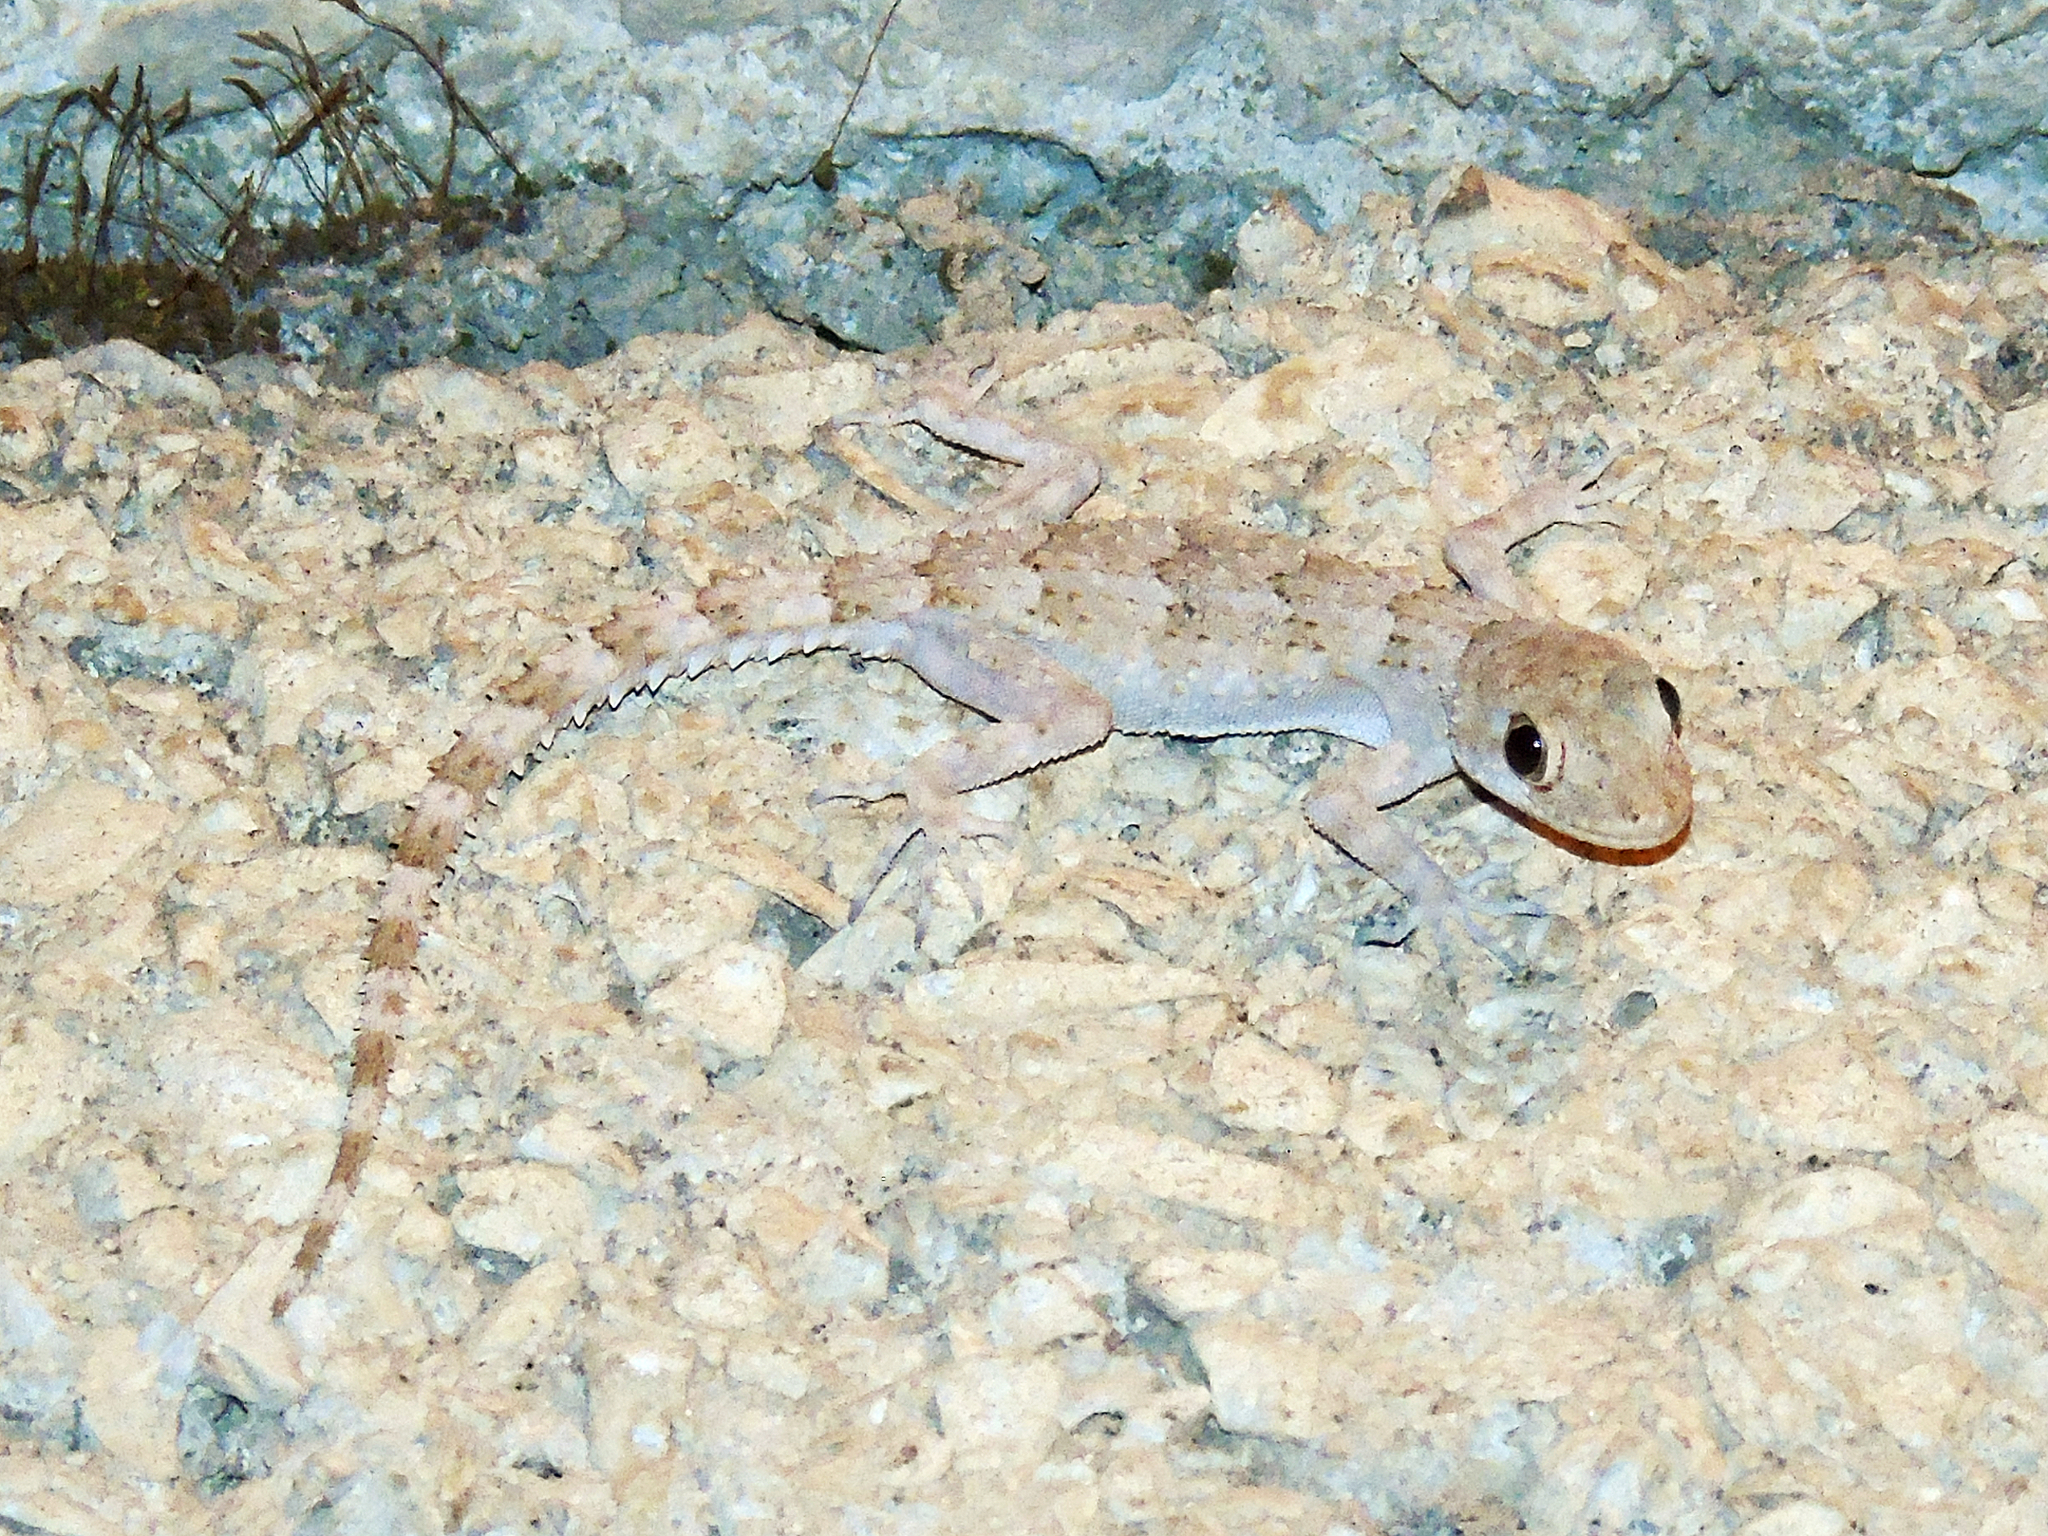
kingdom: Animalia
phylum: Chordata
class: Squamata
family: Gekkonidae
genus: Mediodactylus
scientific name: Mediodactylus heterocercus
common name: Asia minor thin-toed gecko
